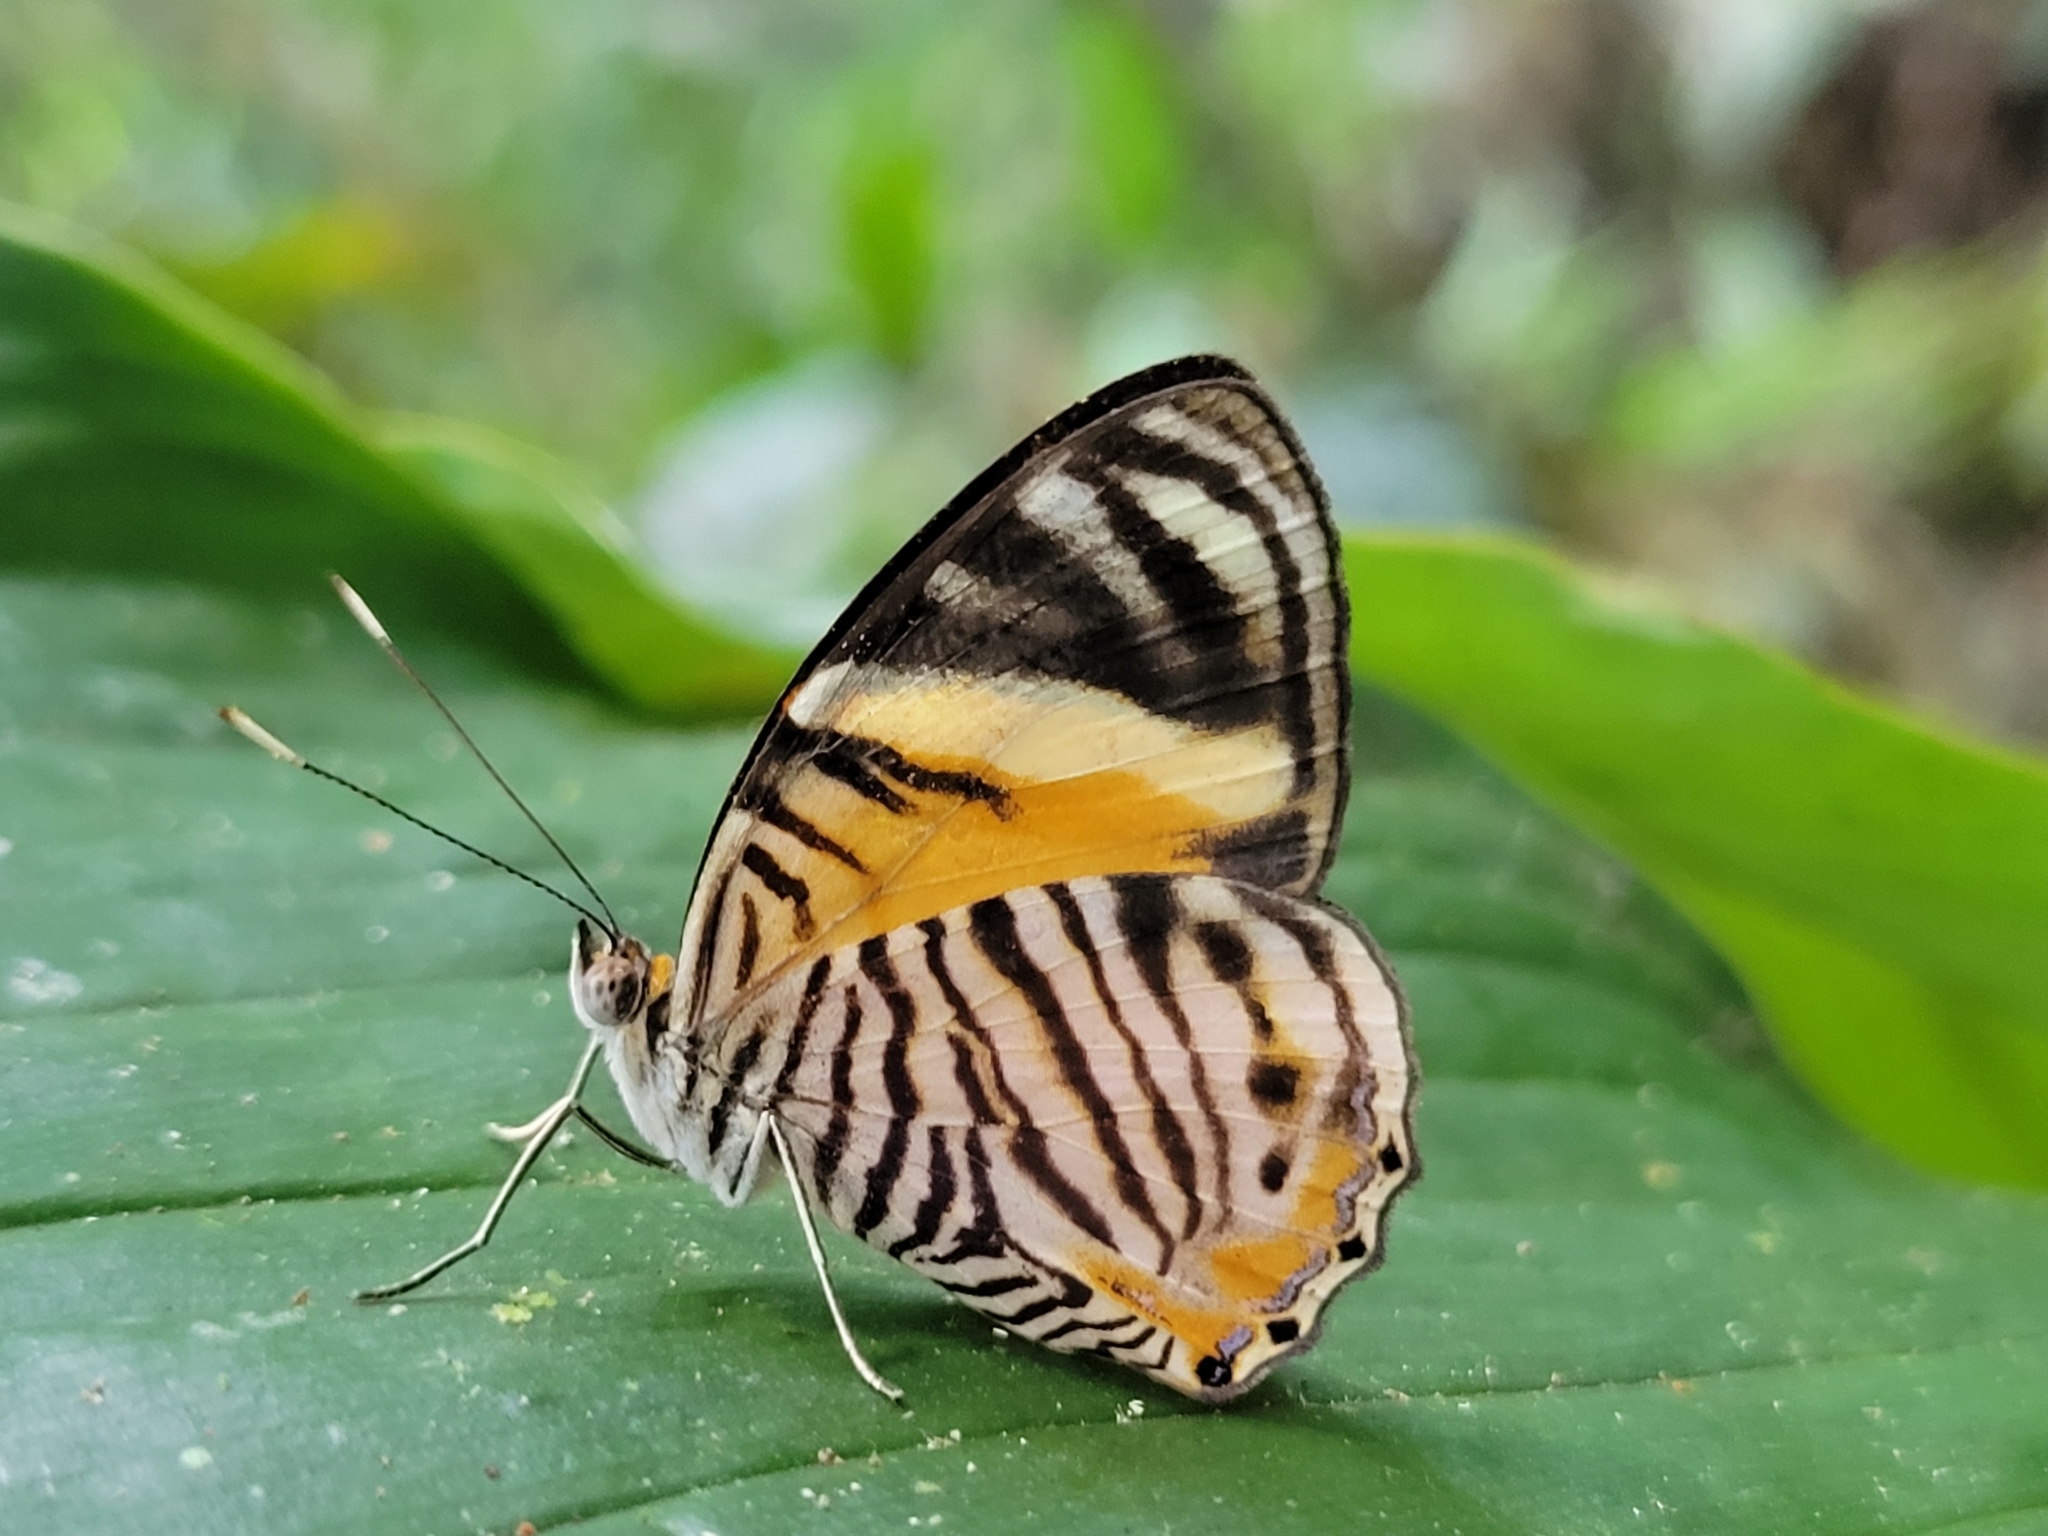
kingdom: Animalia
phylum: Arthropoda
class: Insecta
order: Lepidoptera
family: Nymphalidae
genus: Callizona
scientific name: Callizona acesta
